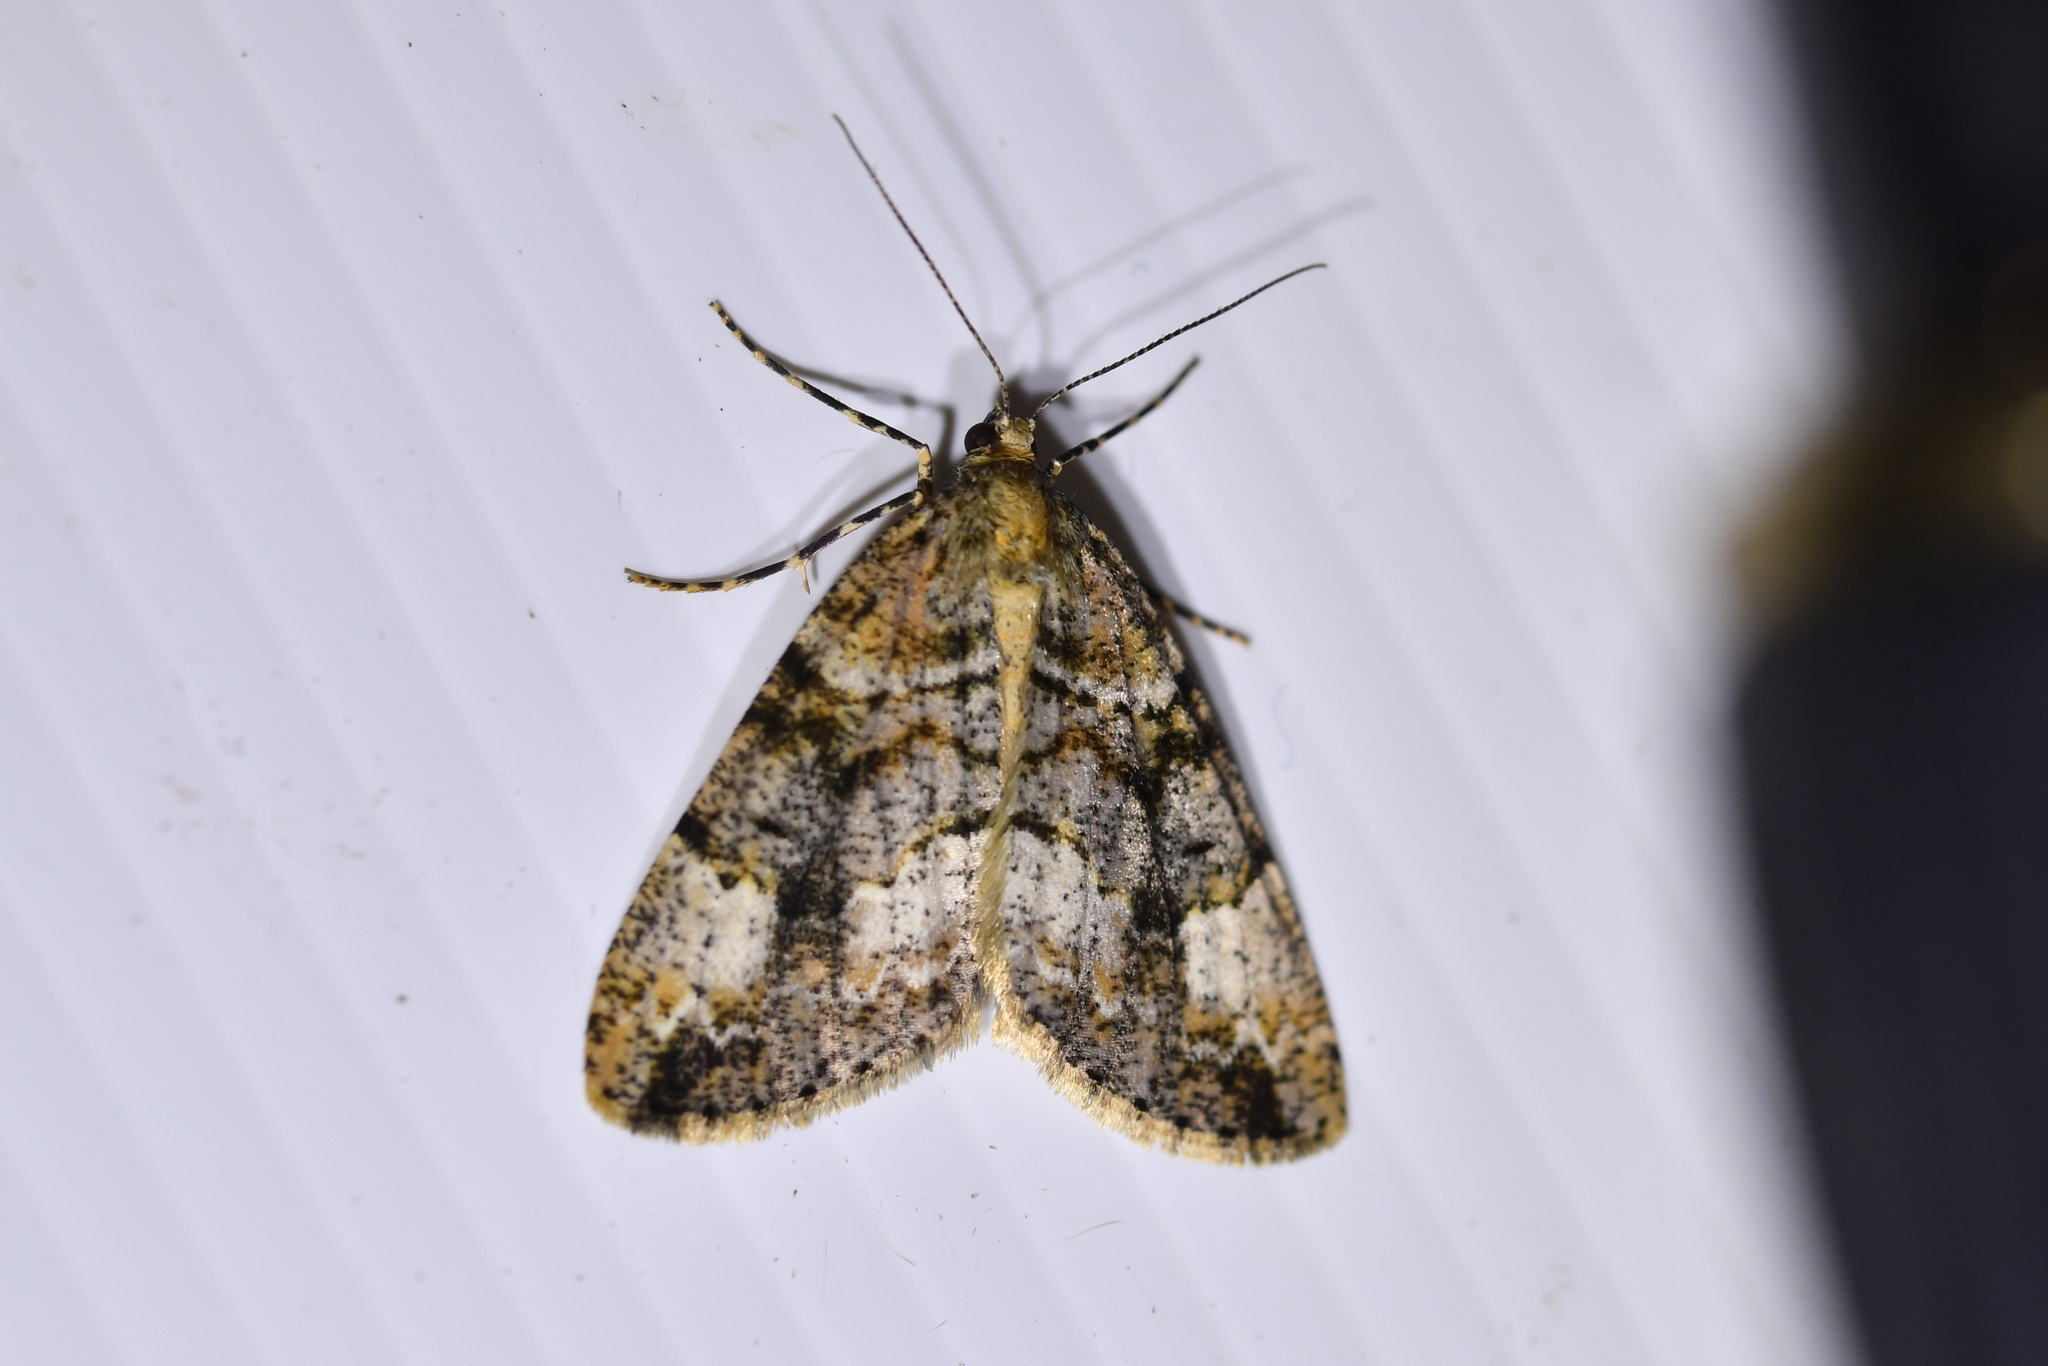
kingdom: Animalia
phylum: Arthropoda
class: Insecta
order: Lepidoptera
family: Geometridae
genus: Pseudocoremia
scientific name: Pseudocoremia productata
